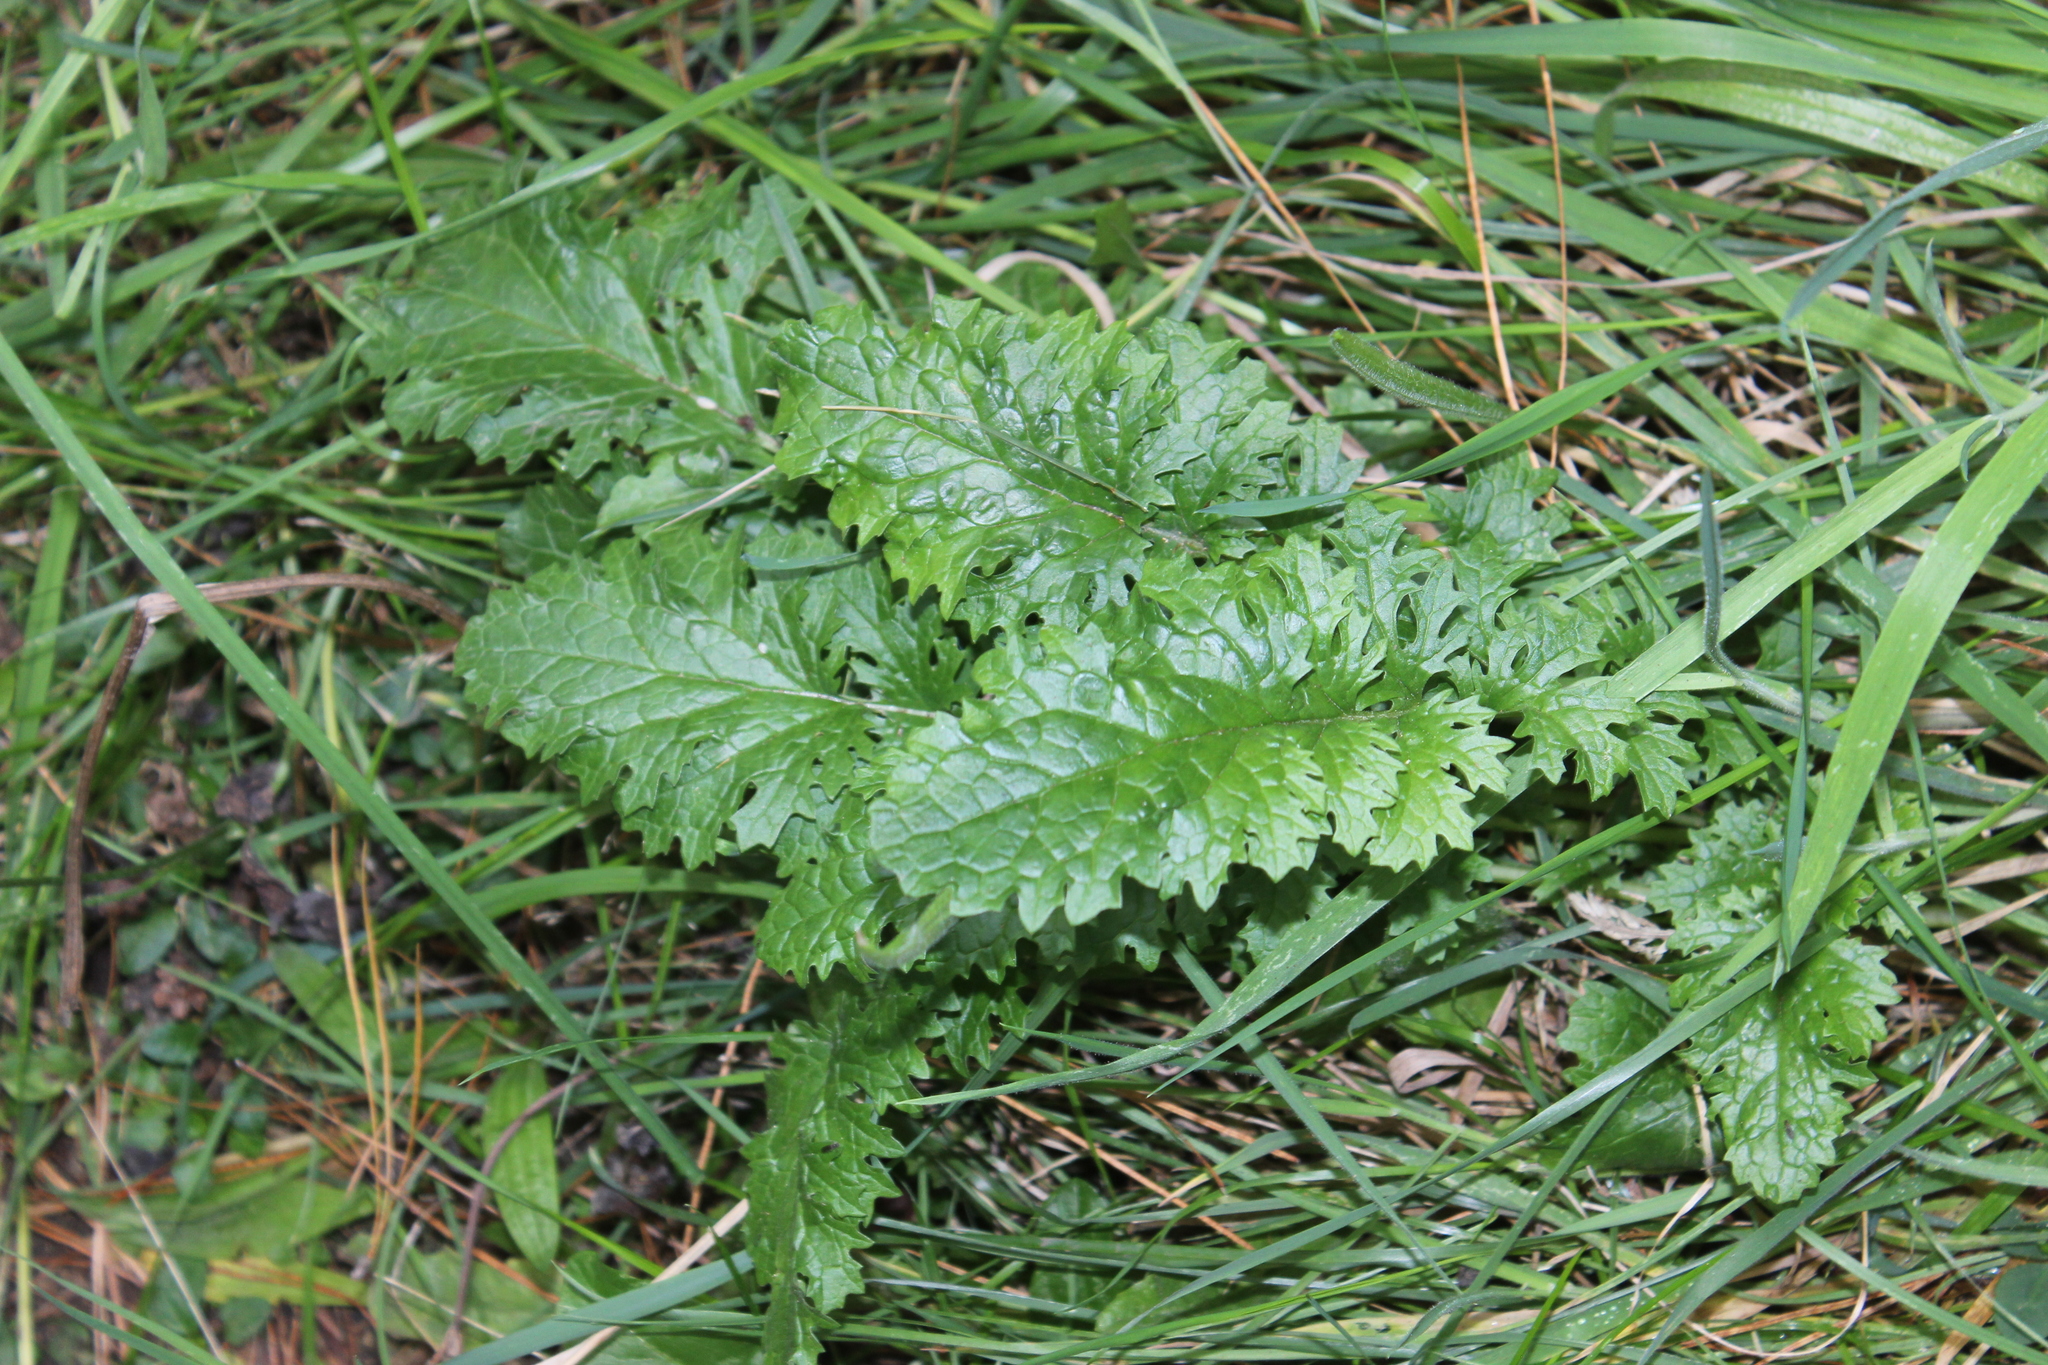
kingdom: Plantae
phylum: Tracheophyta
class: Magnoliopsida
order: Asterales
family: Asteraceae
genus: Jacobaea
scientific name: Jacobaea vulgaris
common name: Stinking willie
